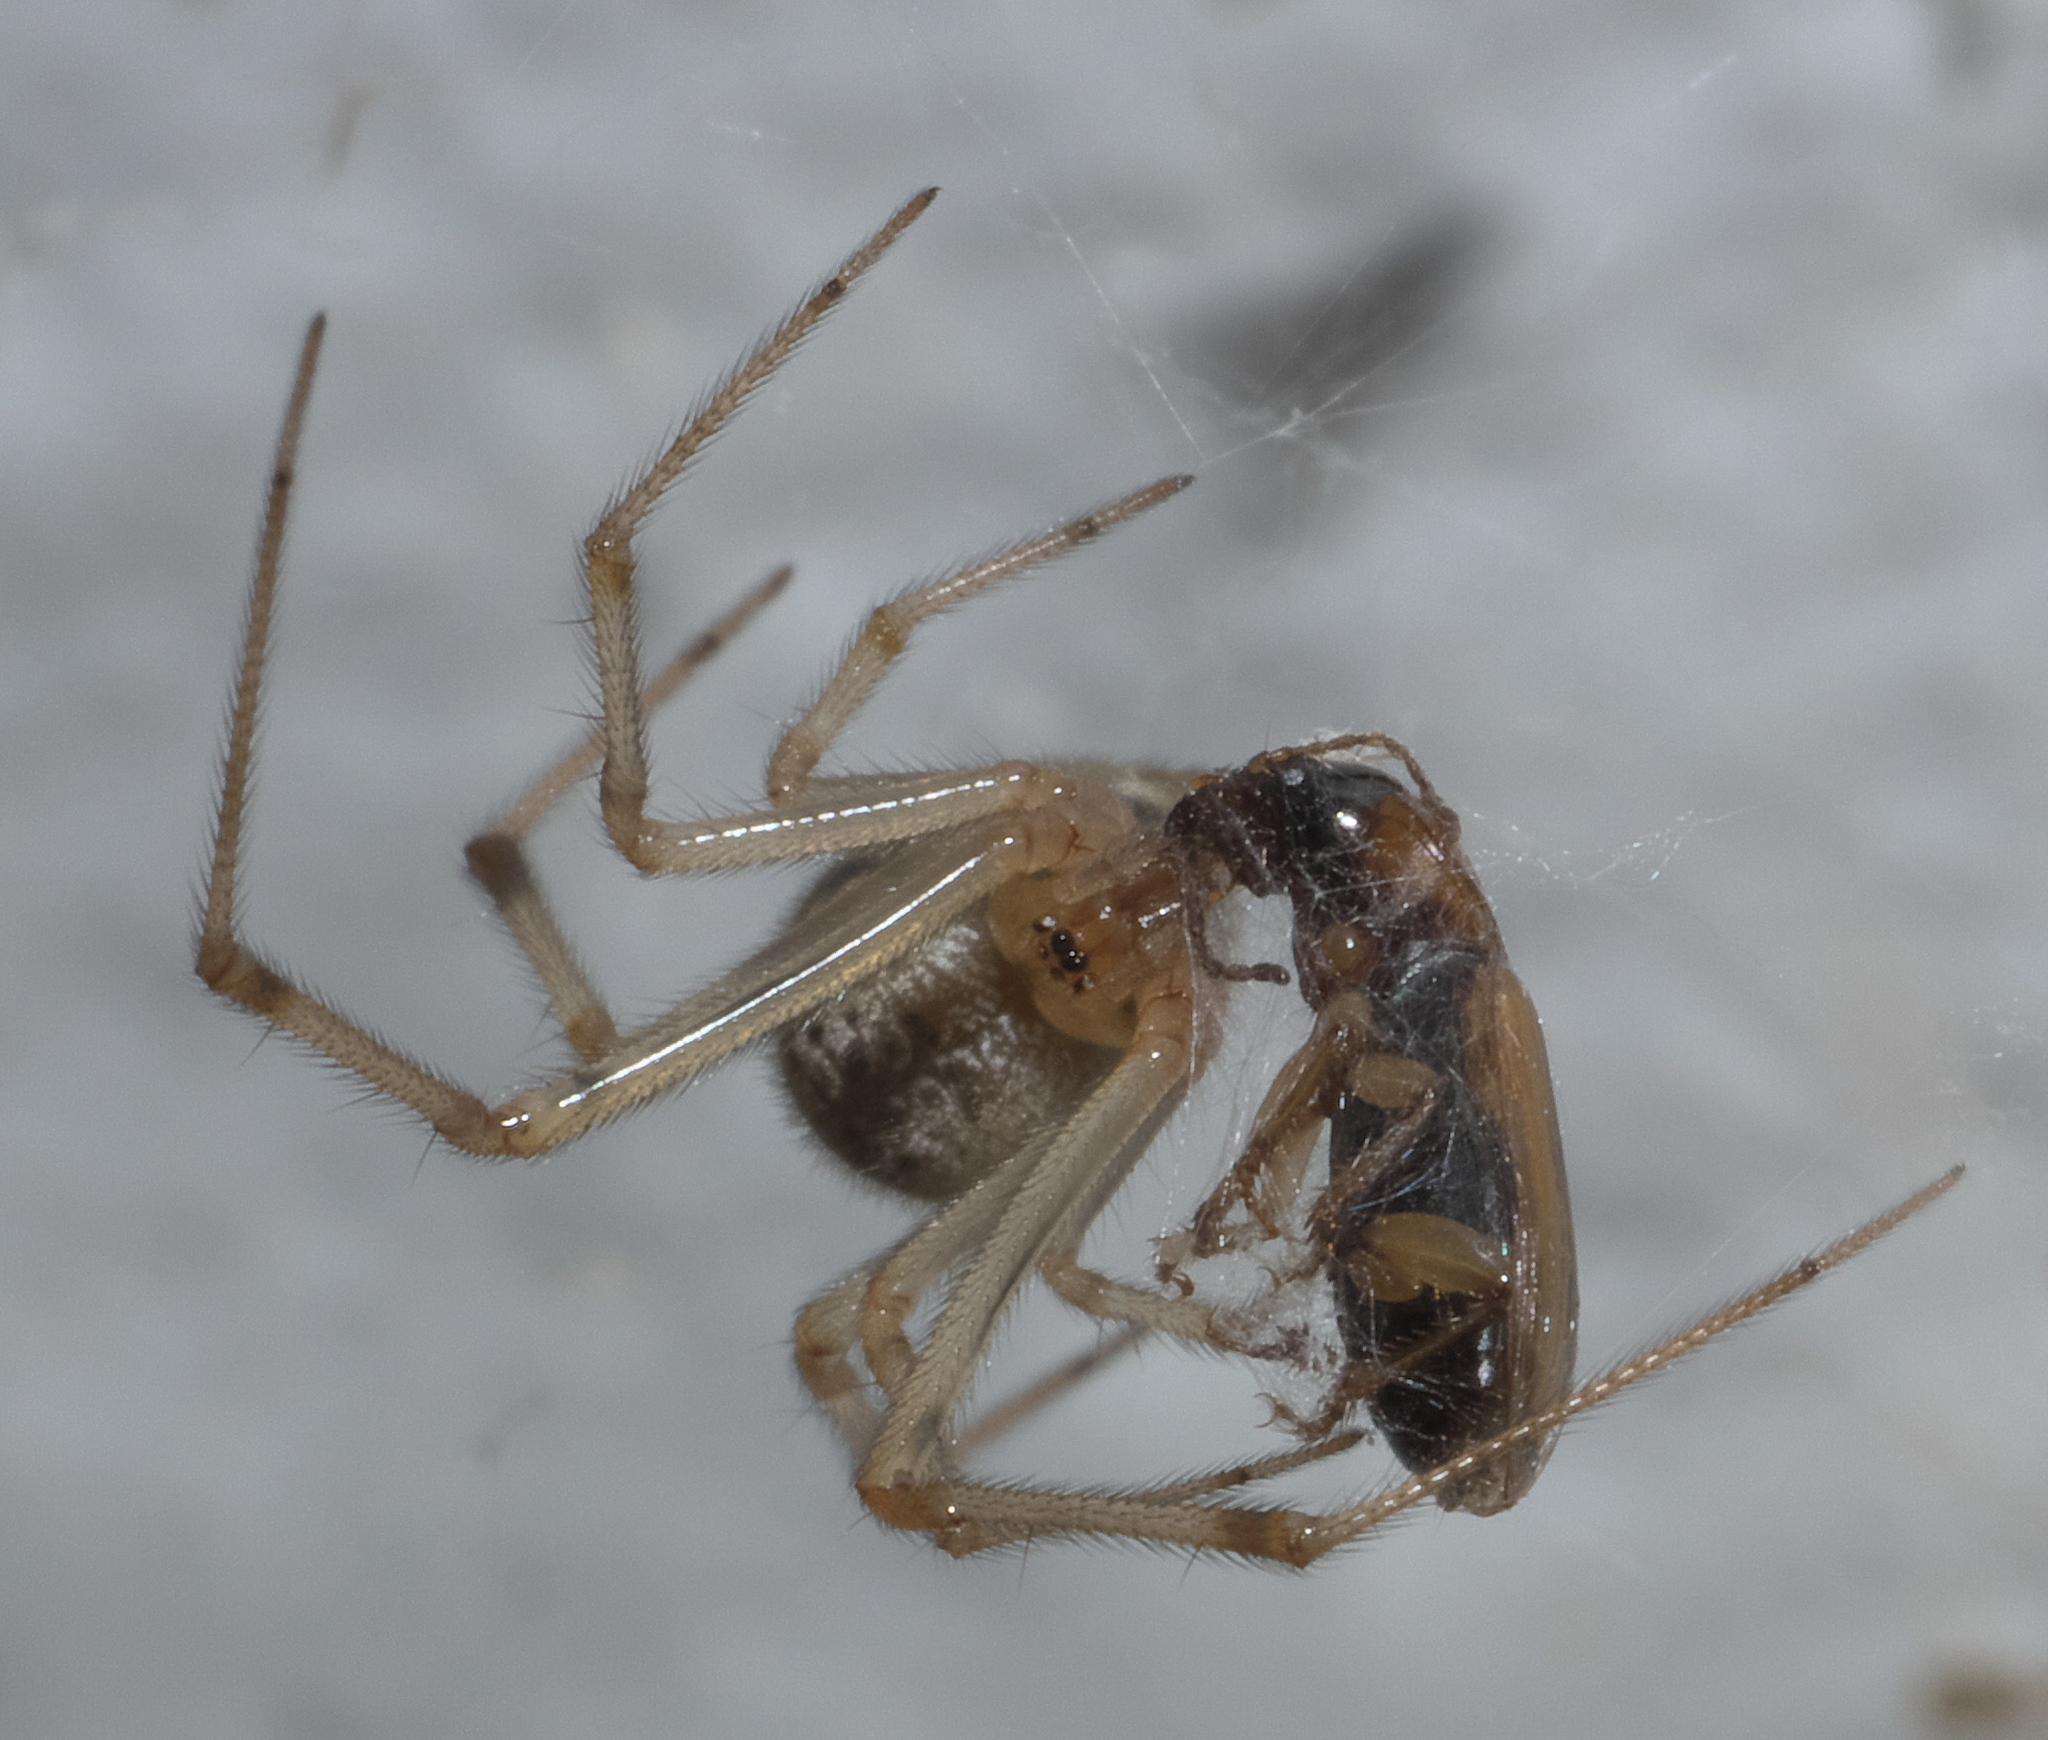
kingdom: Animalia
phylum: Arthropoda
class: Arachnida
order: Araneae
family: Theridiidae
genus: Parasteatoda
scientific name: Parasteatoda tepidariorum
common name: Common house spider
